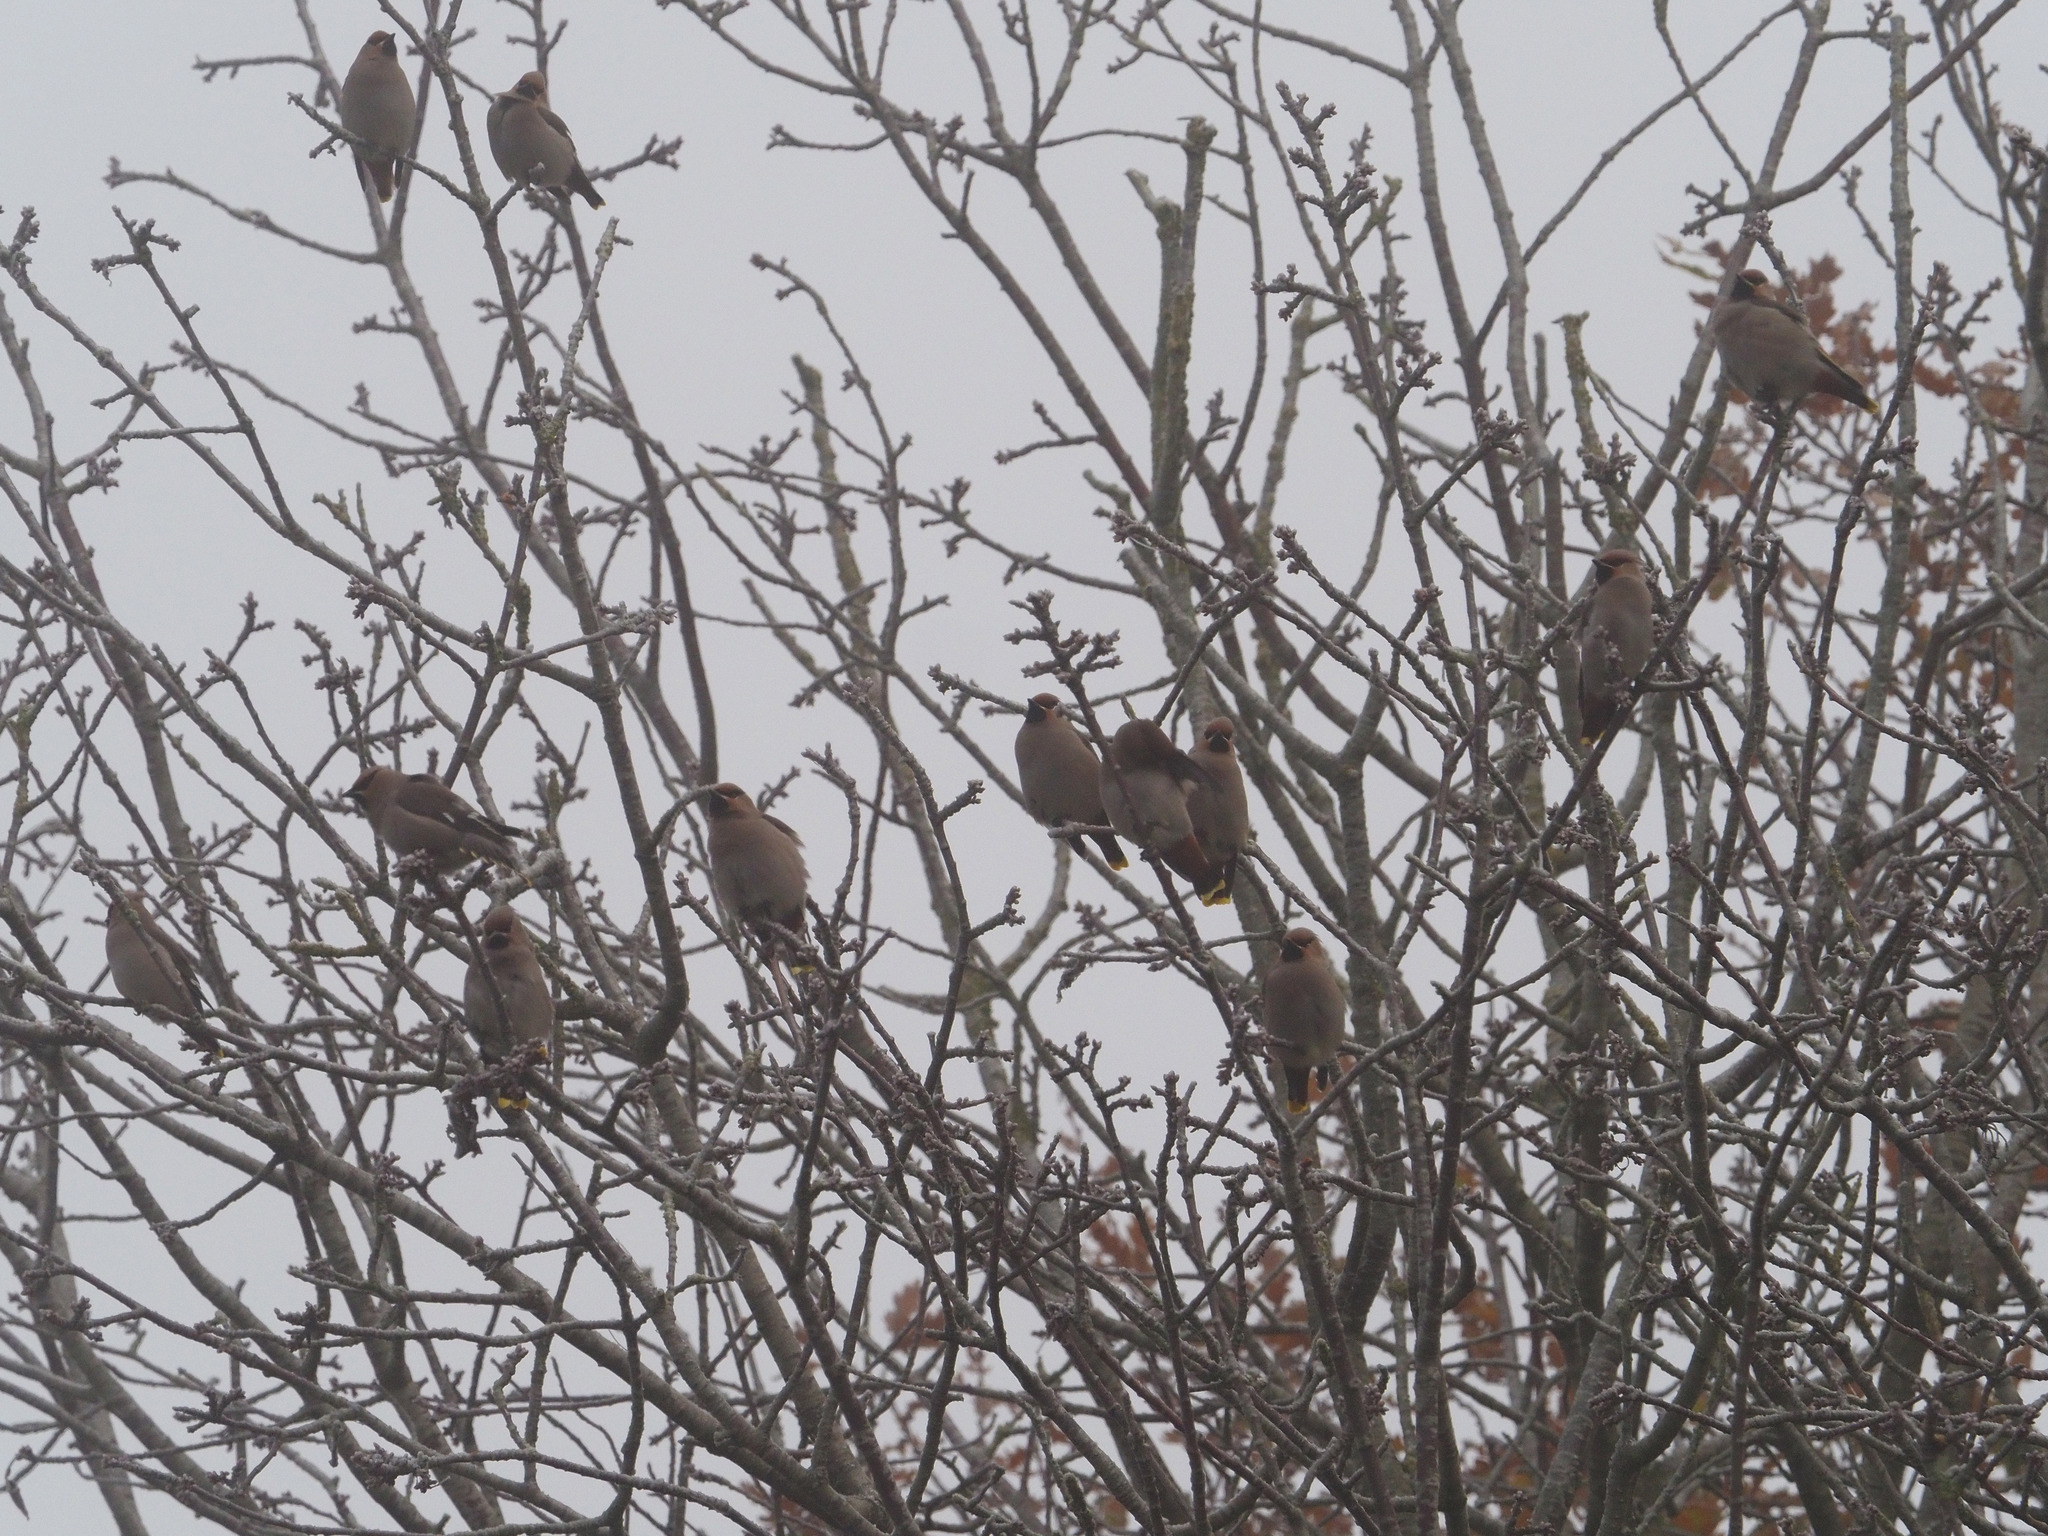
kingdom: Animalia
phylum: Chordata
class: Aves
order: Passeriformes
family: Bombycillidae
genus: Bombycilla
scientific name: Bombycilla garrulus
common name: Bohemian waxwing
